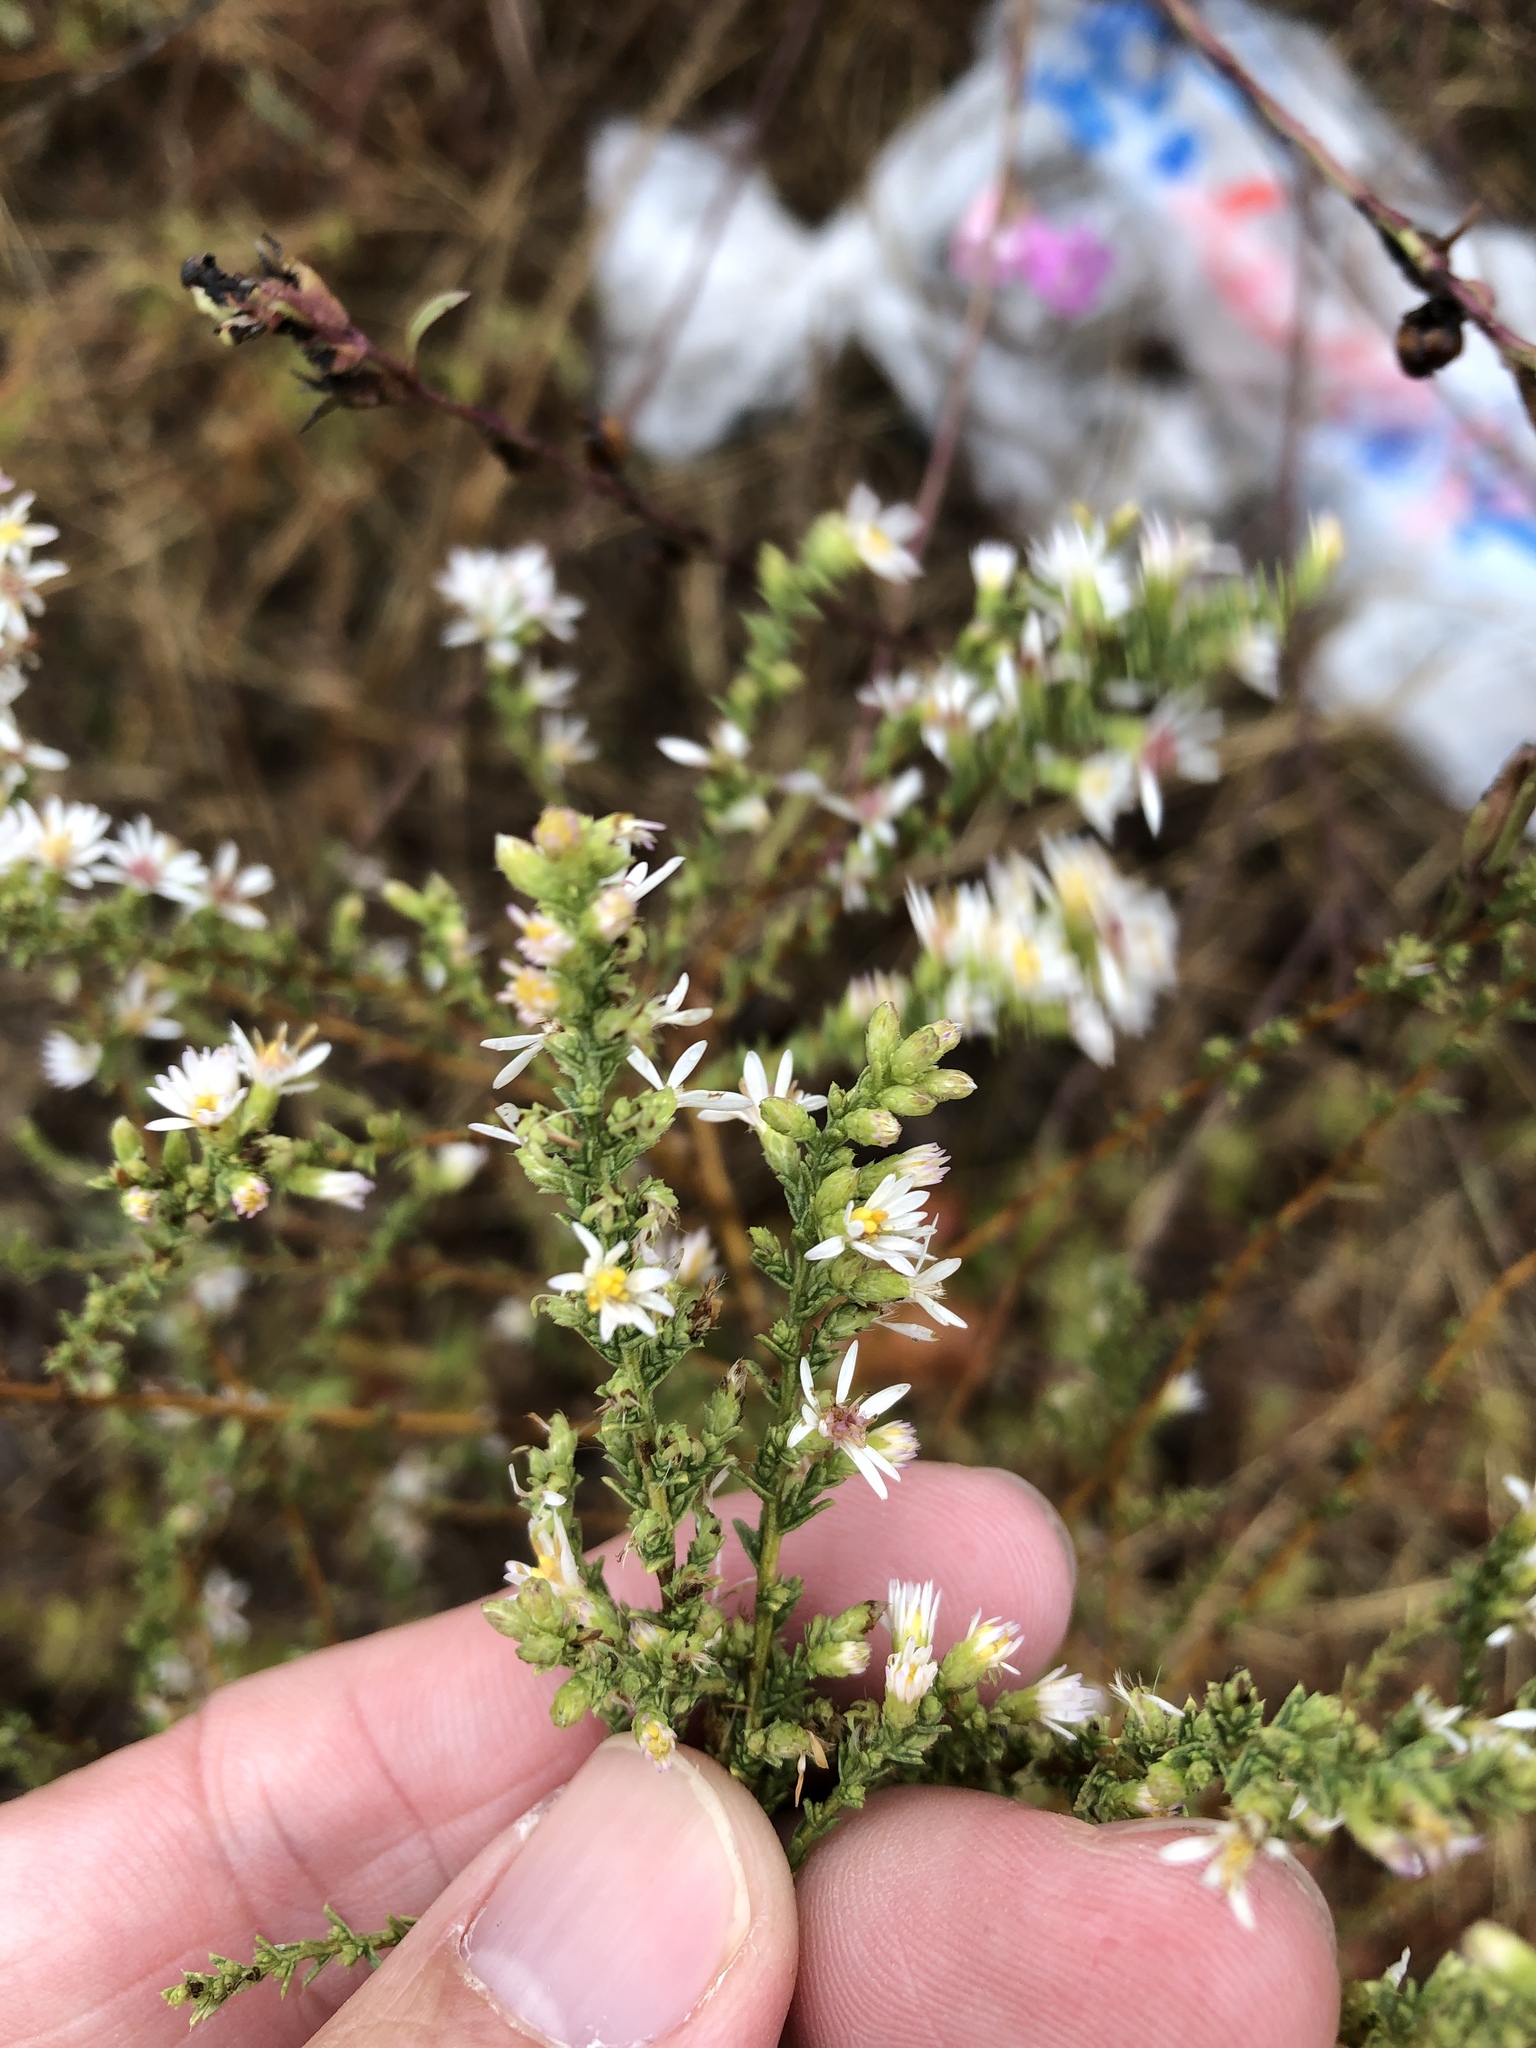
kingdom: Plantae
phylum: Tracheophyta
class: Magnoliopsida
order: Asterales
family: Asteraceae
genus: Symphyotrichum
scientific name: Symphyotrichum ericoides
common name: Heath aster
